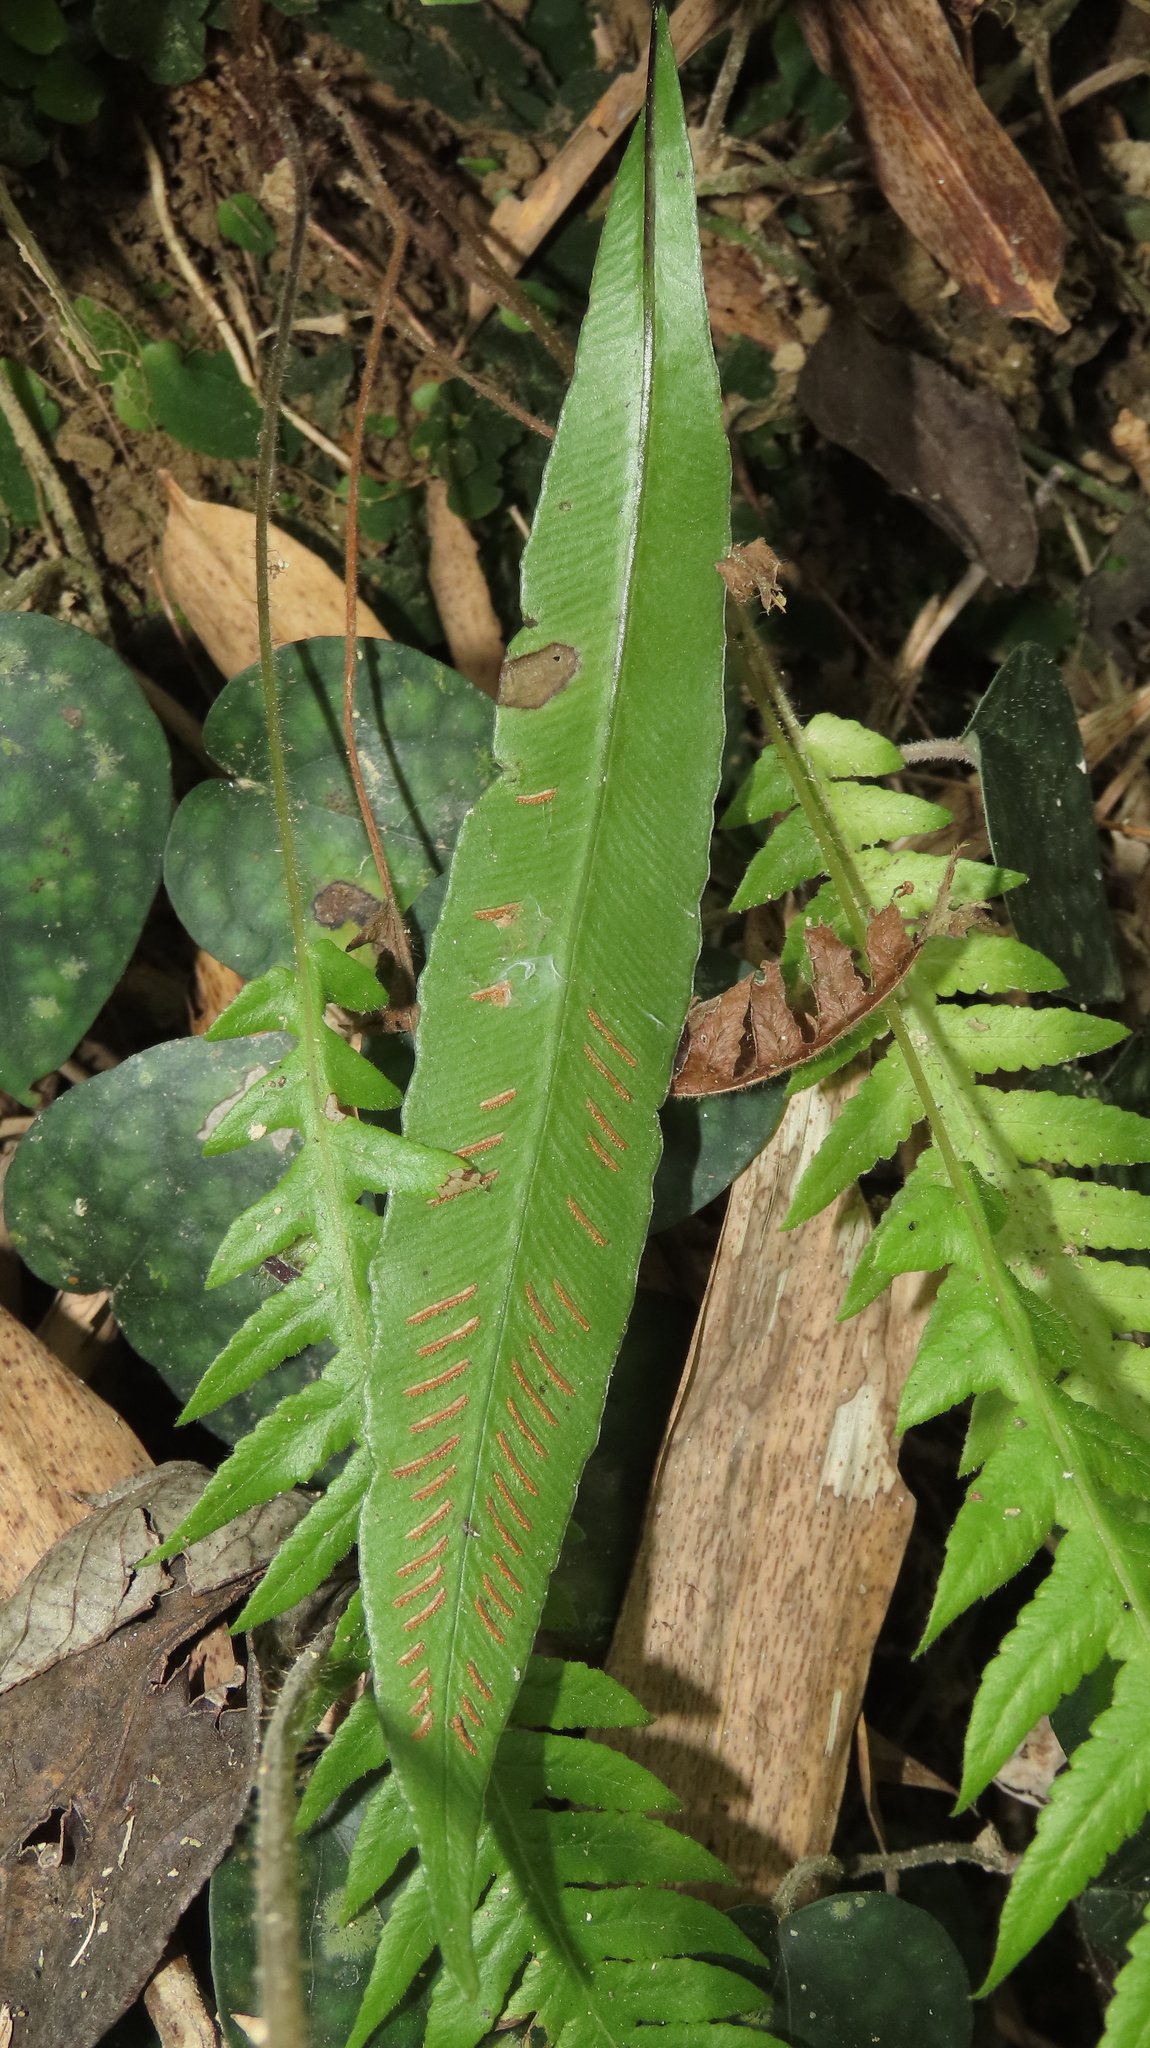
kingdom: Plantae
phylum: Tracheophyta
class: Polypodiopsida
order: Polypodiales
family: Athyriaceae
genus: Deparia
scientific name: Deparia lancea
